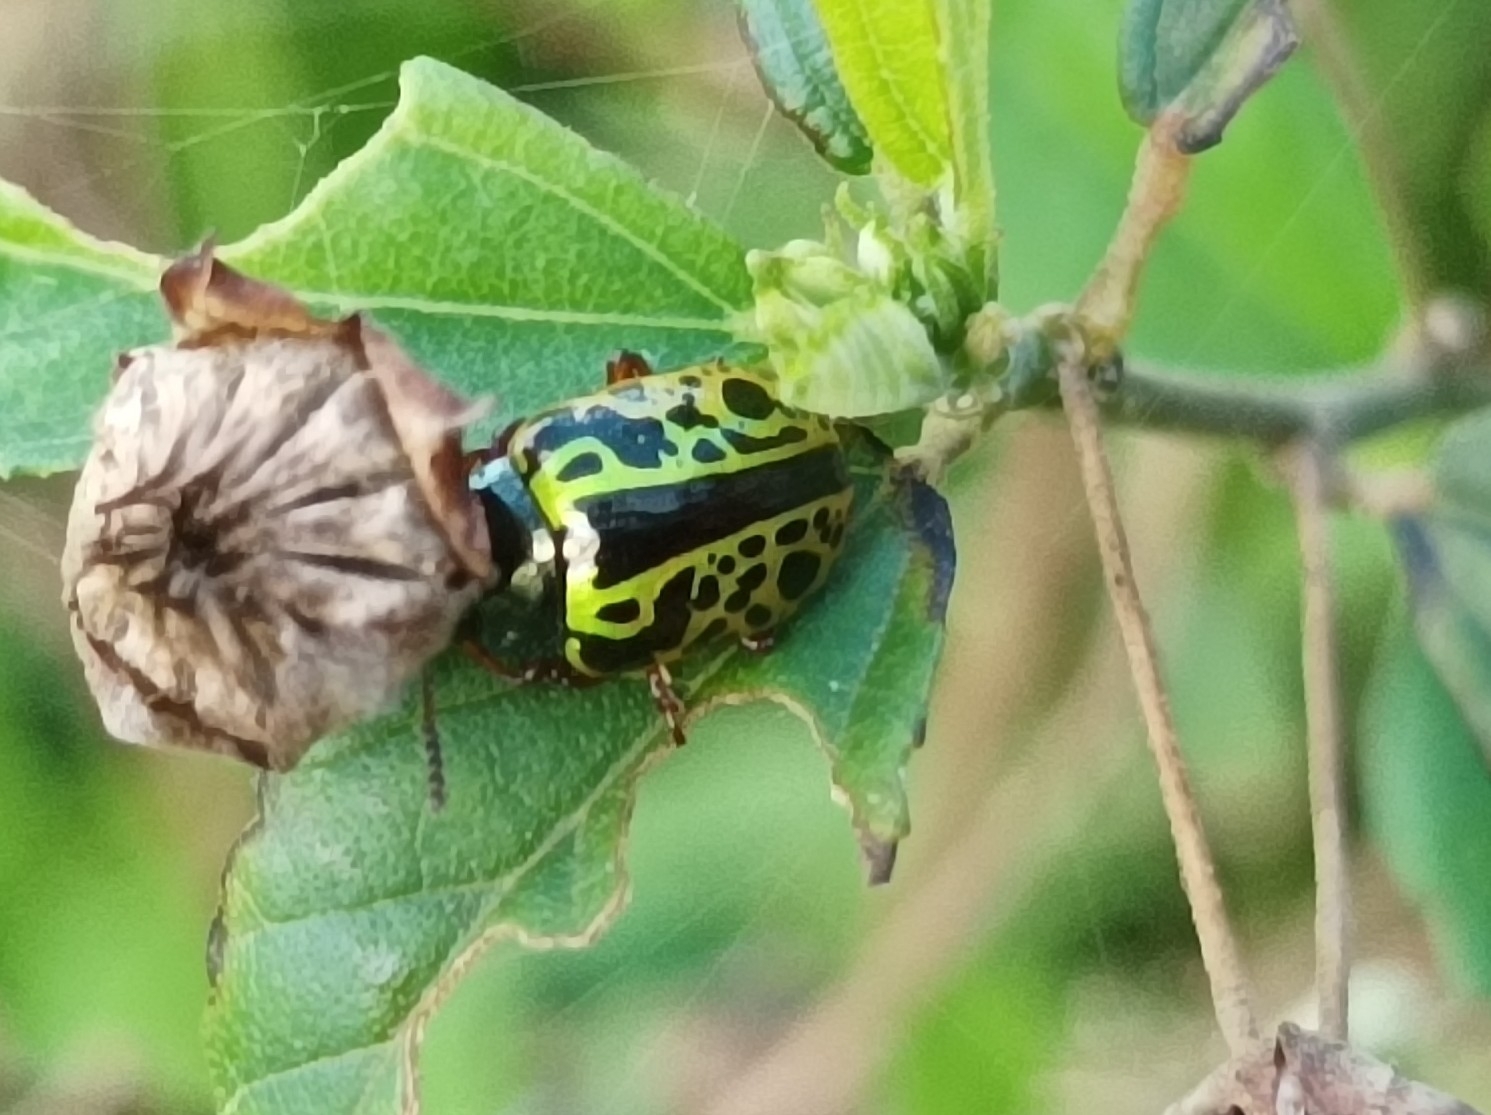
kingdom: Animalia
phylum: Arthropoda
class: Insecta
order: Coleoptera
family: Chrysomelidae
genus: Calligrapha
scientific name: Calligrapha pantherina
